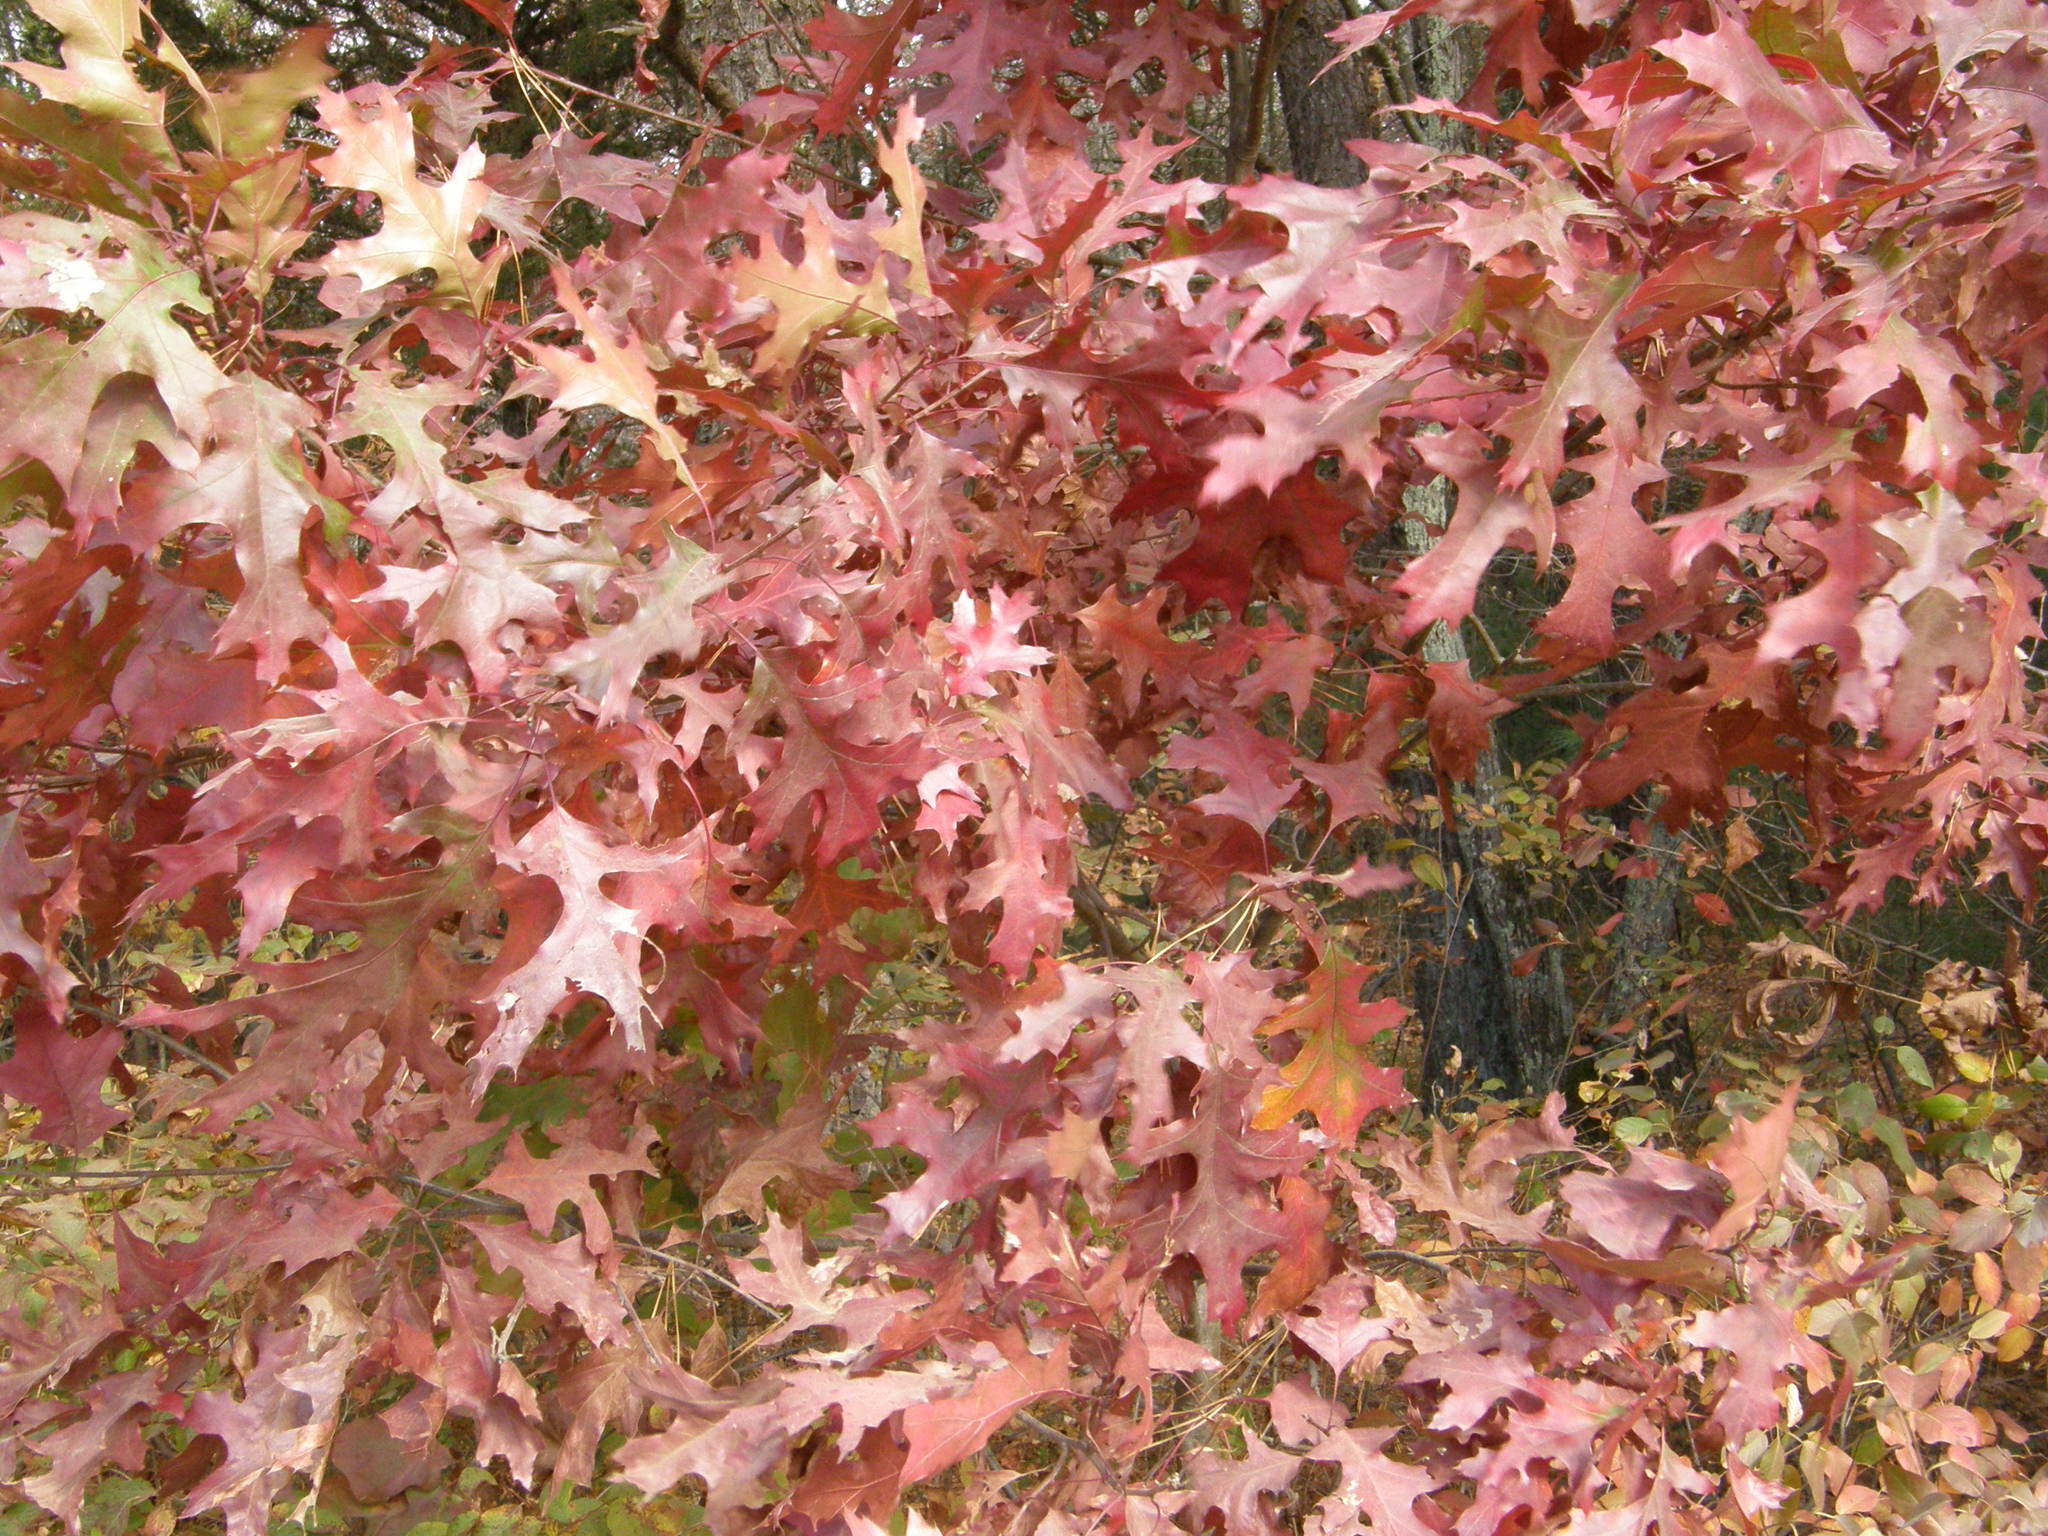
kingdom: Plantae
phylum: Tracheophyta
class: Magnoliopsida
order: Fagales
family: Fagaceae
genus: Quercus
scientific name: Quercus rubra
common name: Red oak
